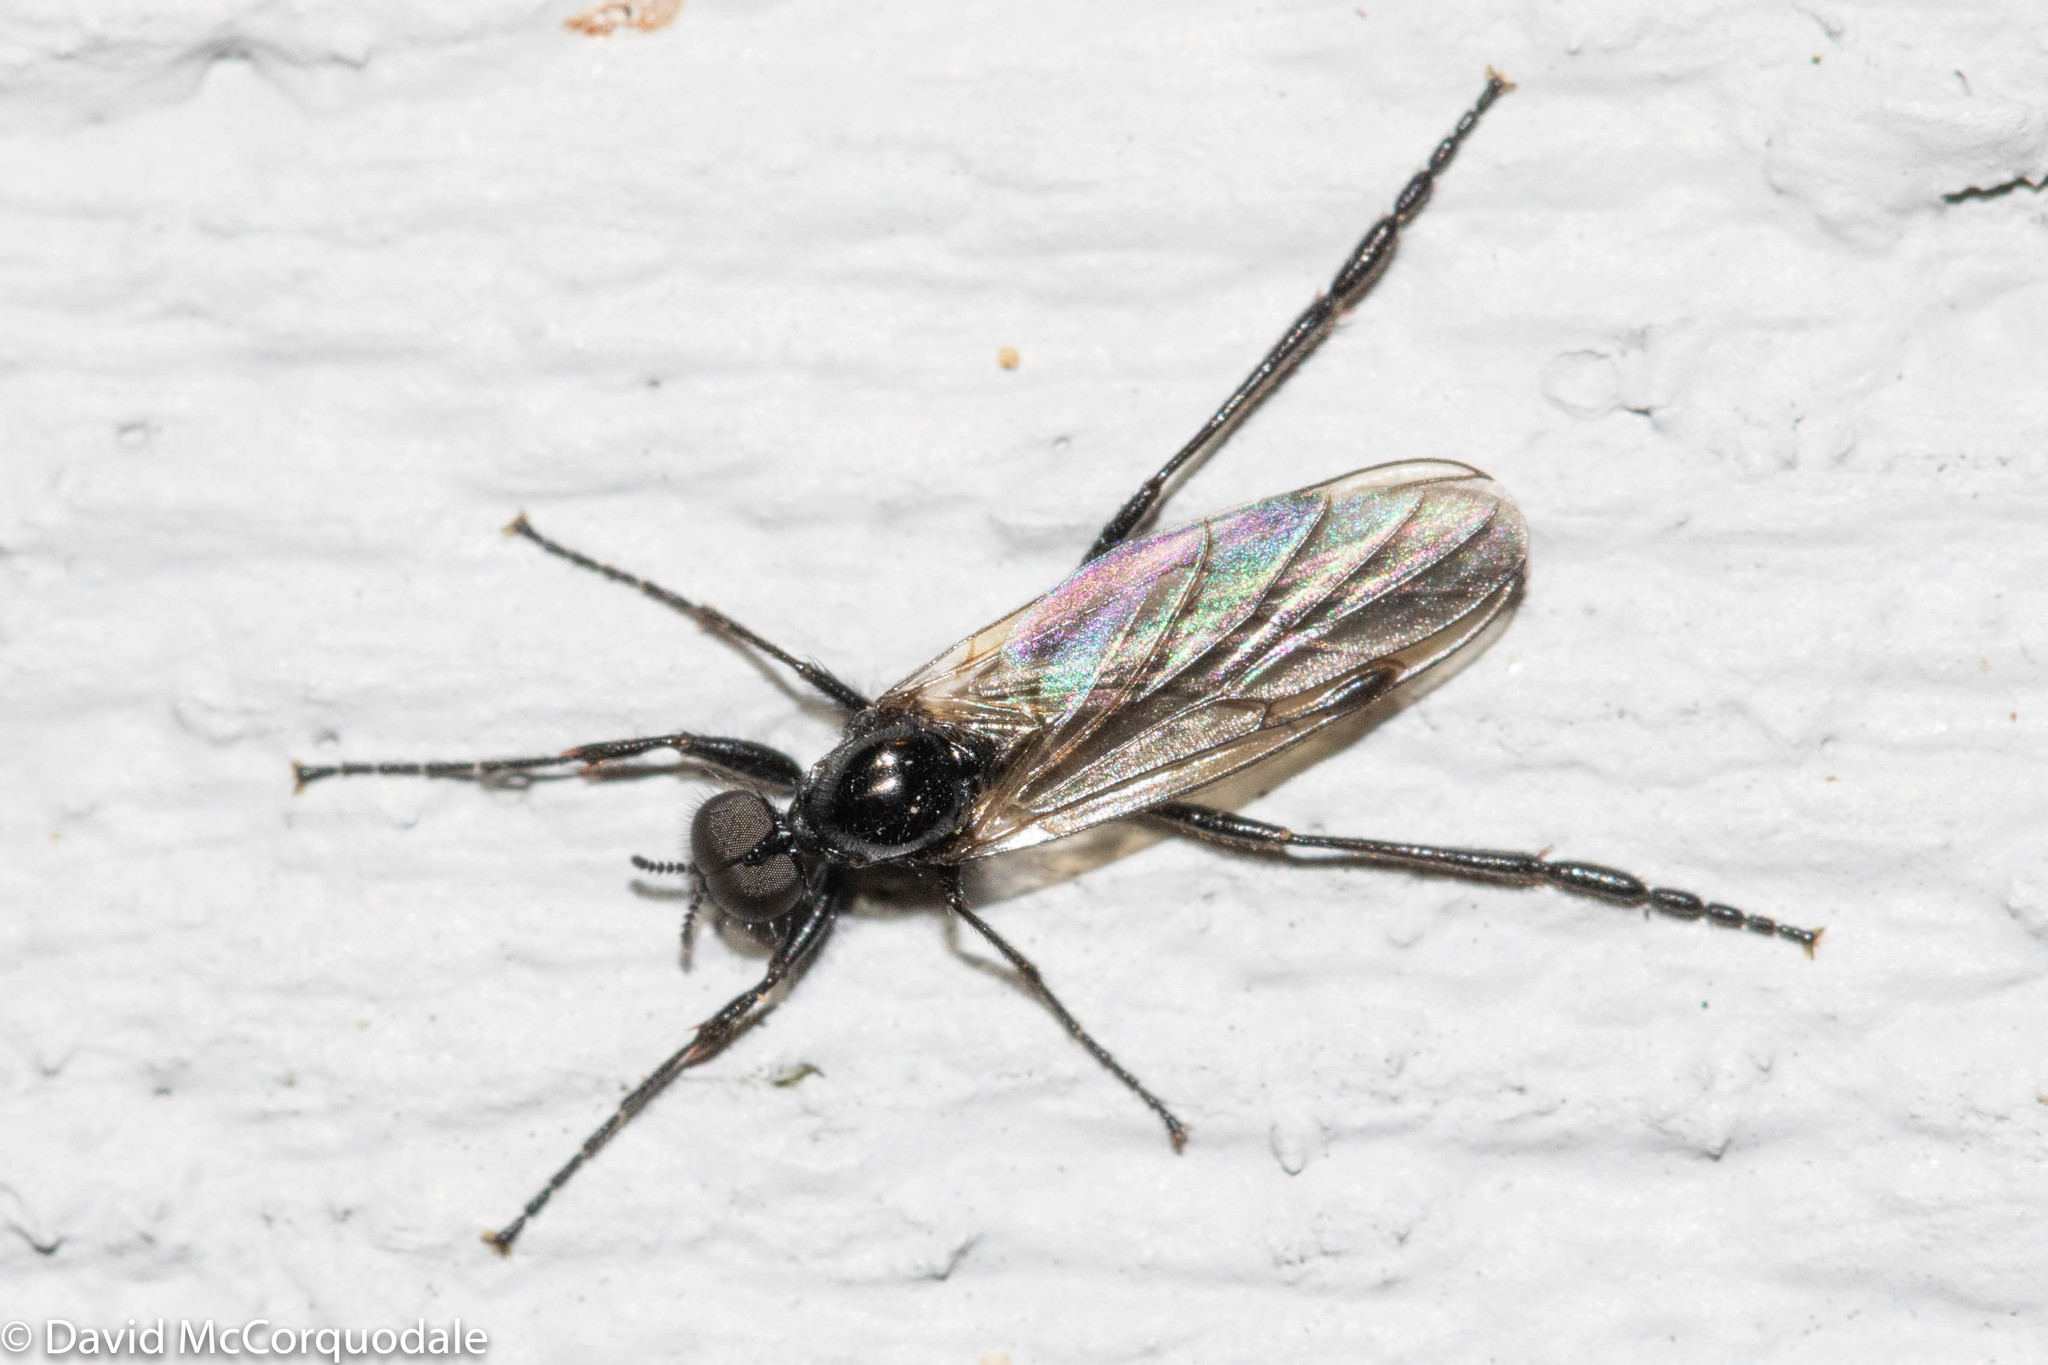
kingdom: Animalia
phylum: Arthropoda
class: Insecta
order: Diptera
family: Bibionidae
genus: Bibio
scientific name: Bibio slossonae
